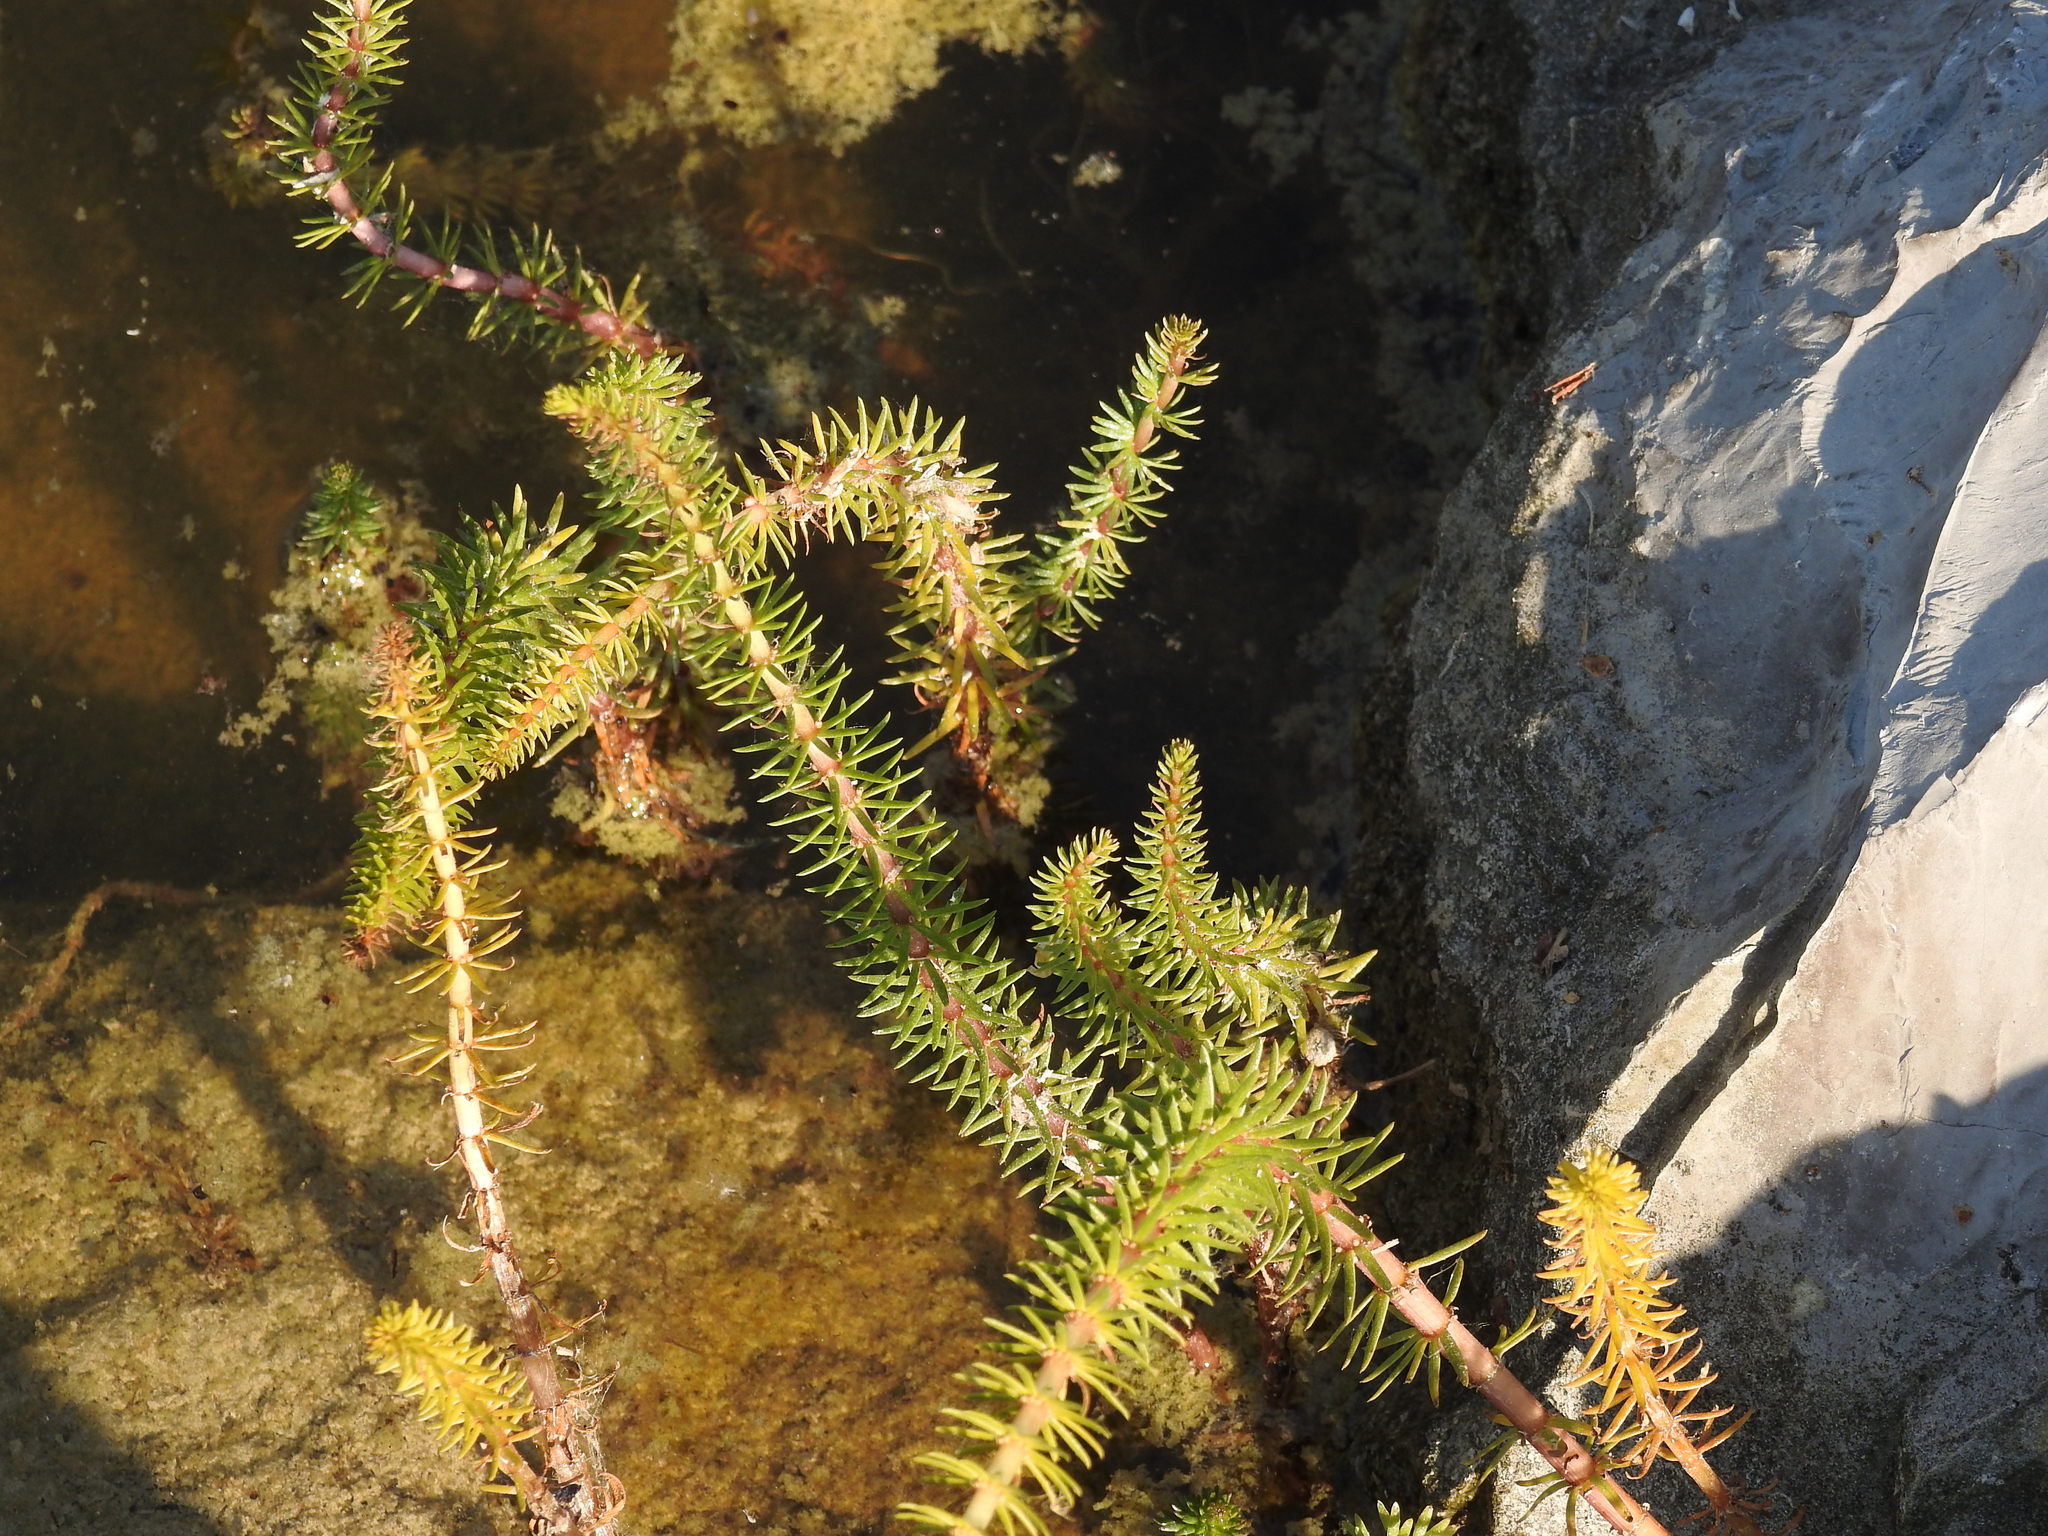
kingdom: Plantae
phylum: Tracheophyta
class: Magnoliopsida
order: Lamiales
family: Plantaginaceae
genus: Hippuris
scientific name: Hippuris vulgaris
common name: Mare's-tail
